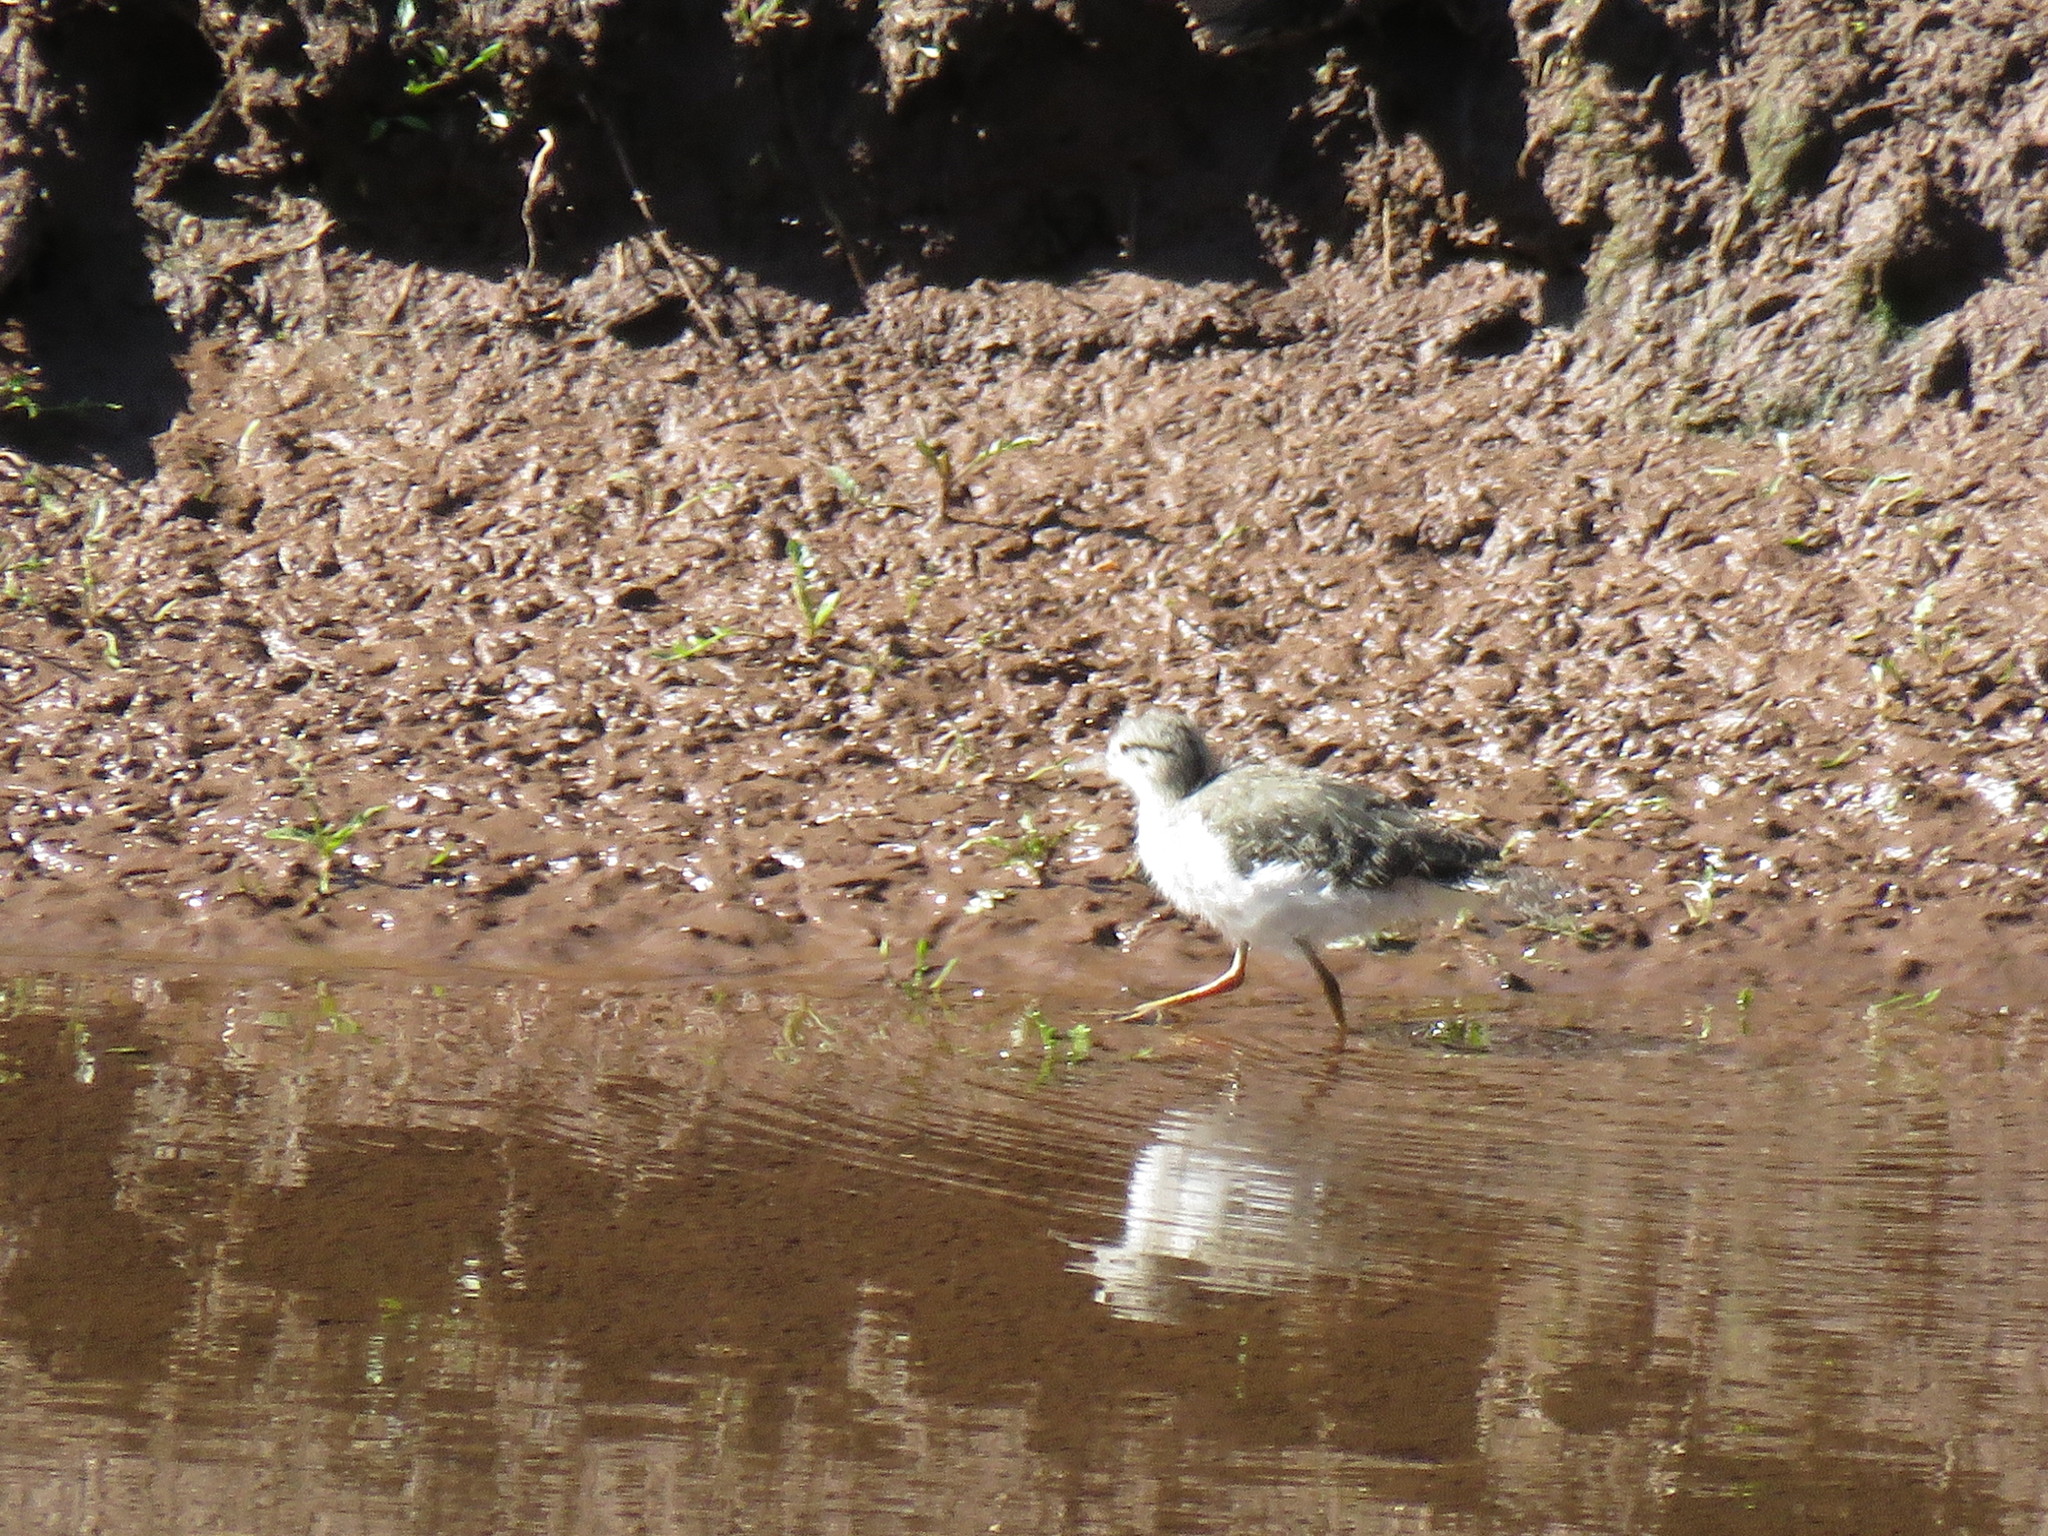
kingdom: Animalia
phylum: Chordata
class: Aves
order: Charadriiformes
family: Scolopacidae
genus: Actitis
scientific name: Actitis macularius
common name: Spotted sandpiper
